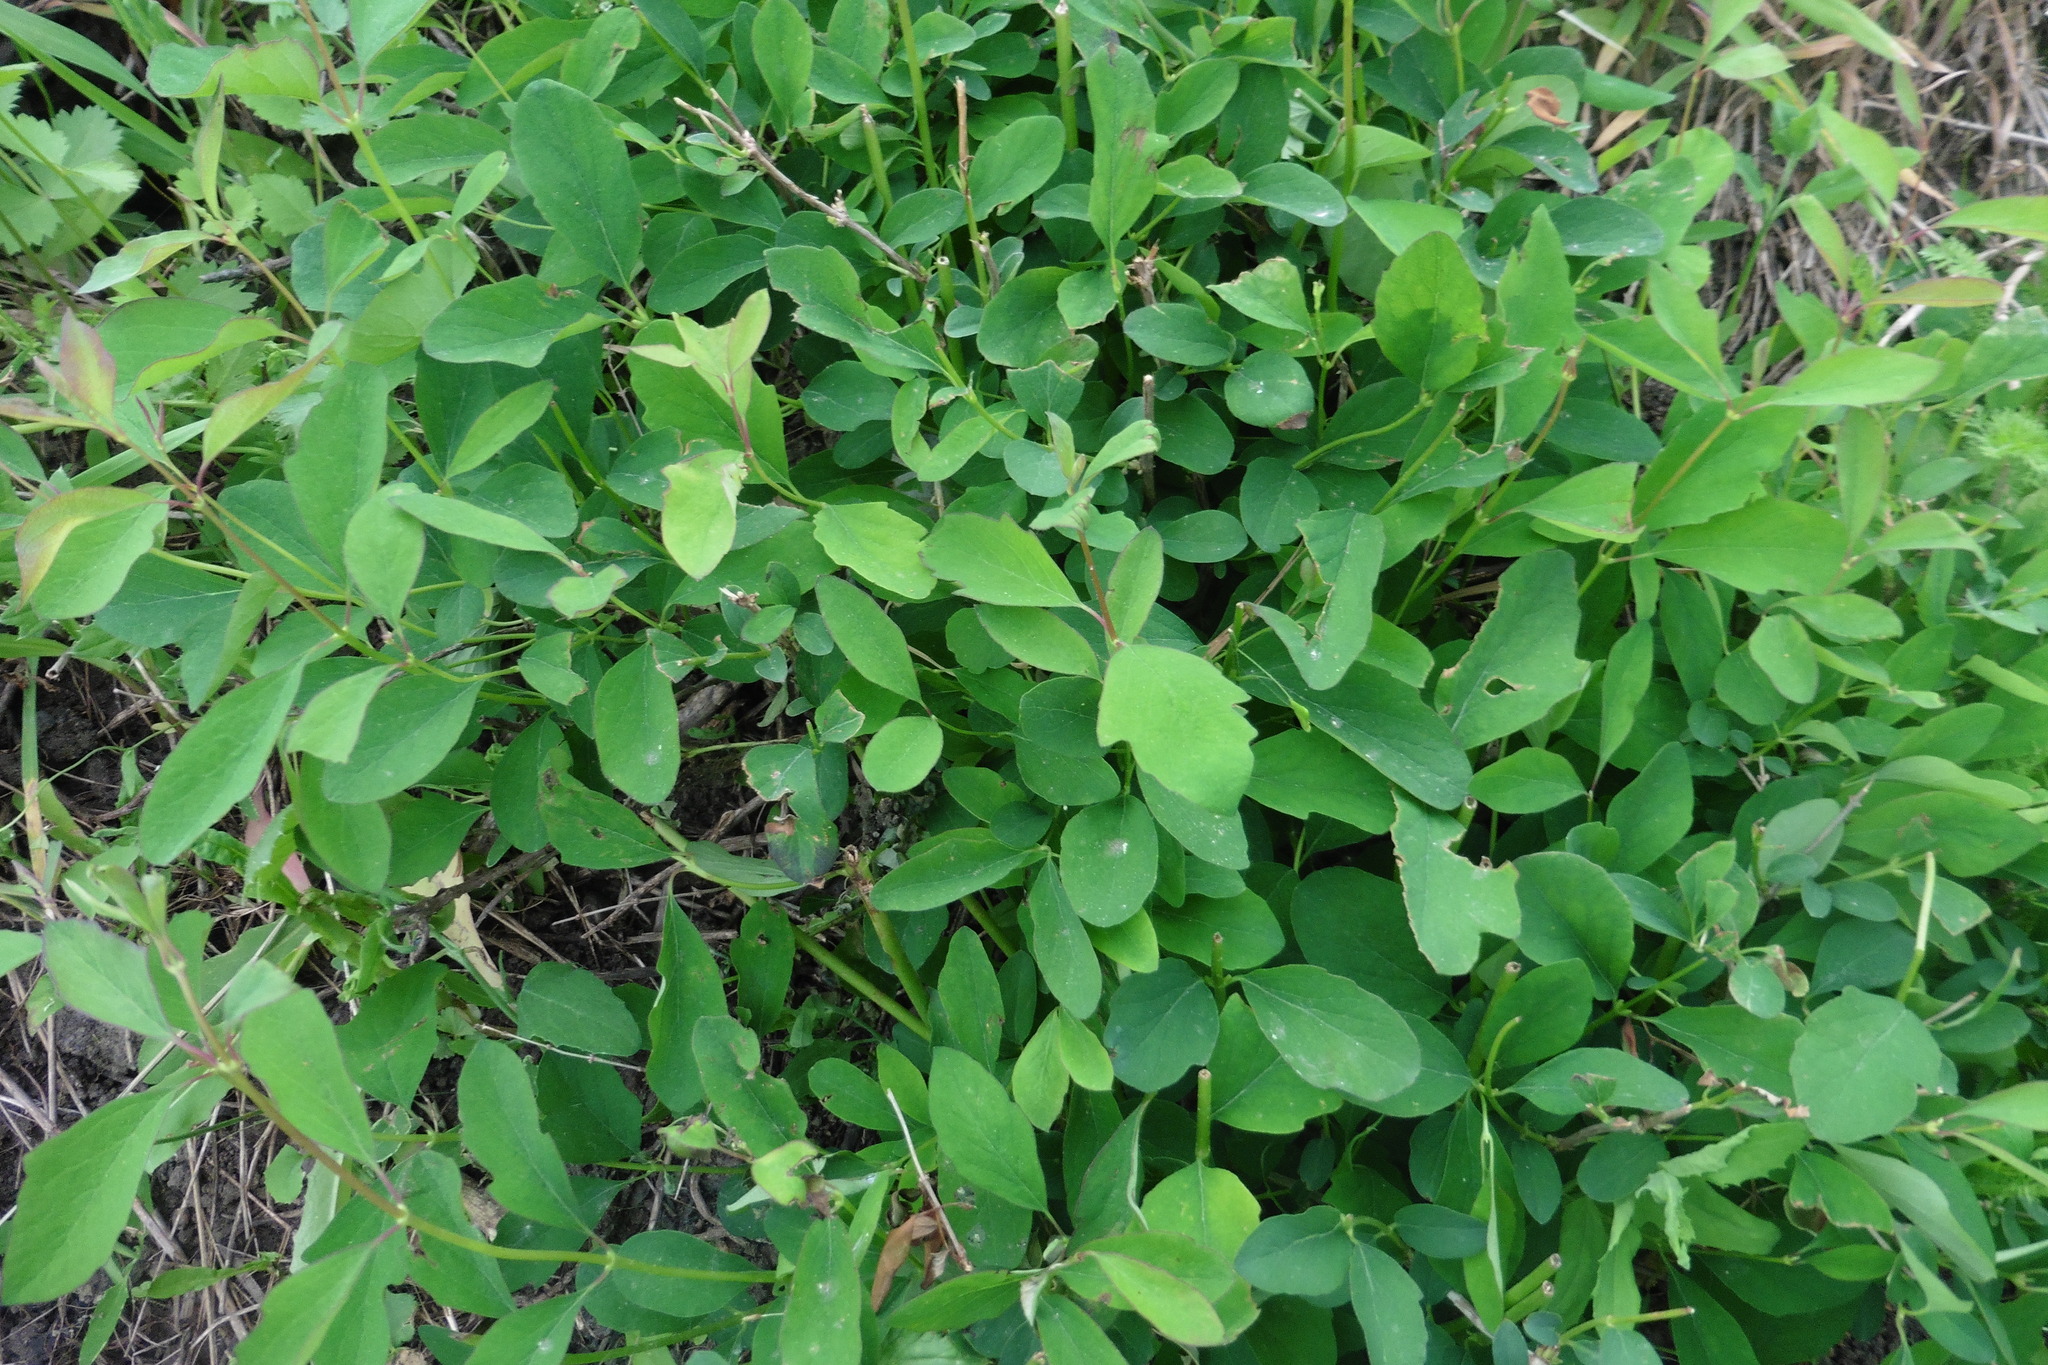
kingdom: Plantae
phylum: Tracheophyta
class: Magnoliopsida
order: Dipsacales
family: Caprifoliaceae
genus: Symphoricarpos
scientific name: Symphoricarpos albus
